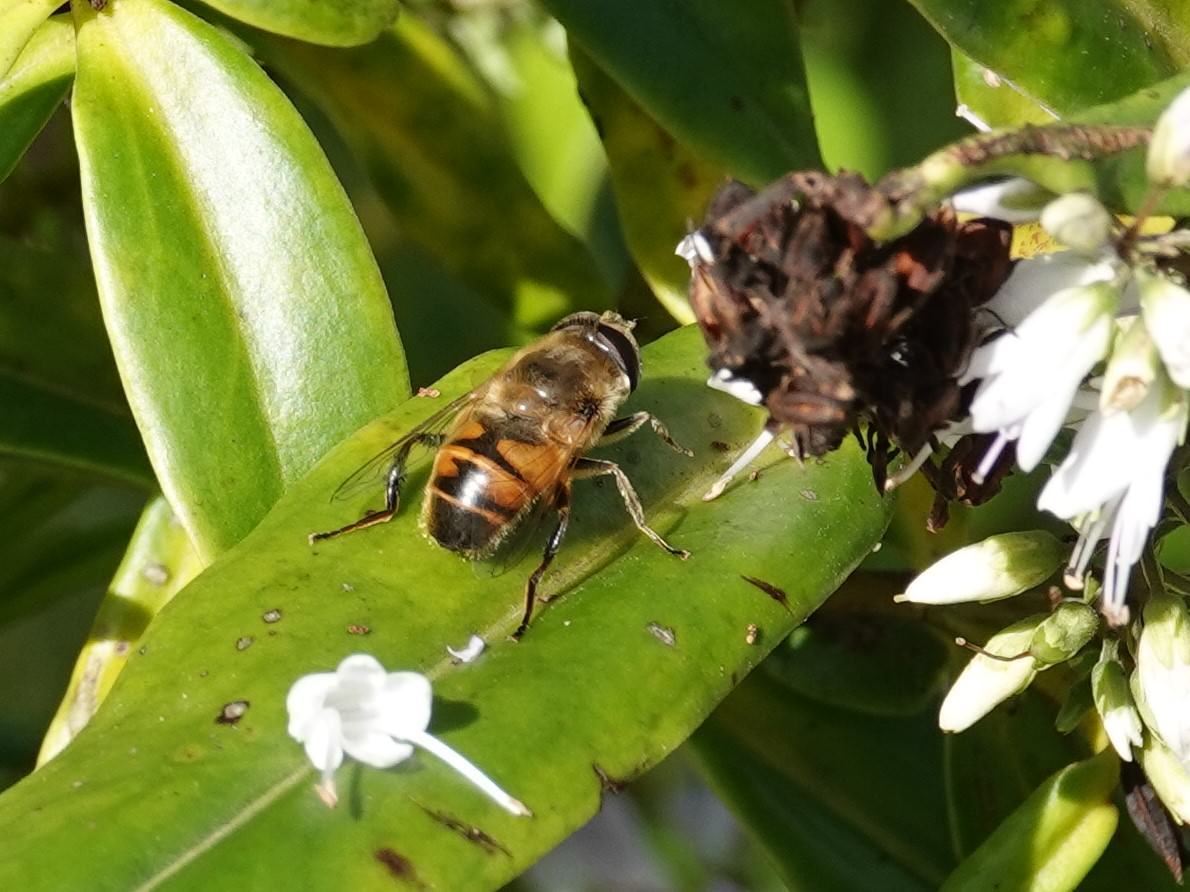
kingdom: Animalia
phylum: Arthropoda
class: Insecta
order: Diptera
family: Syrphidae
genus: Eristalis
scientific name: Eristalis tenax
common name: Drone fly
